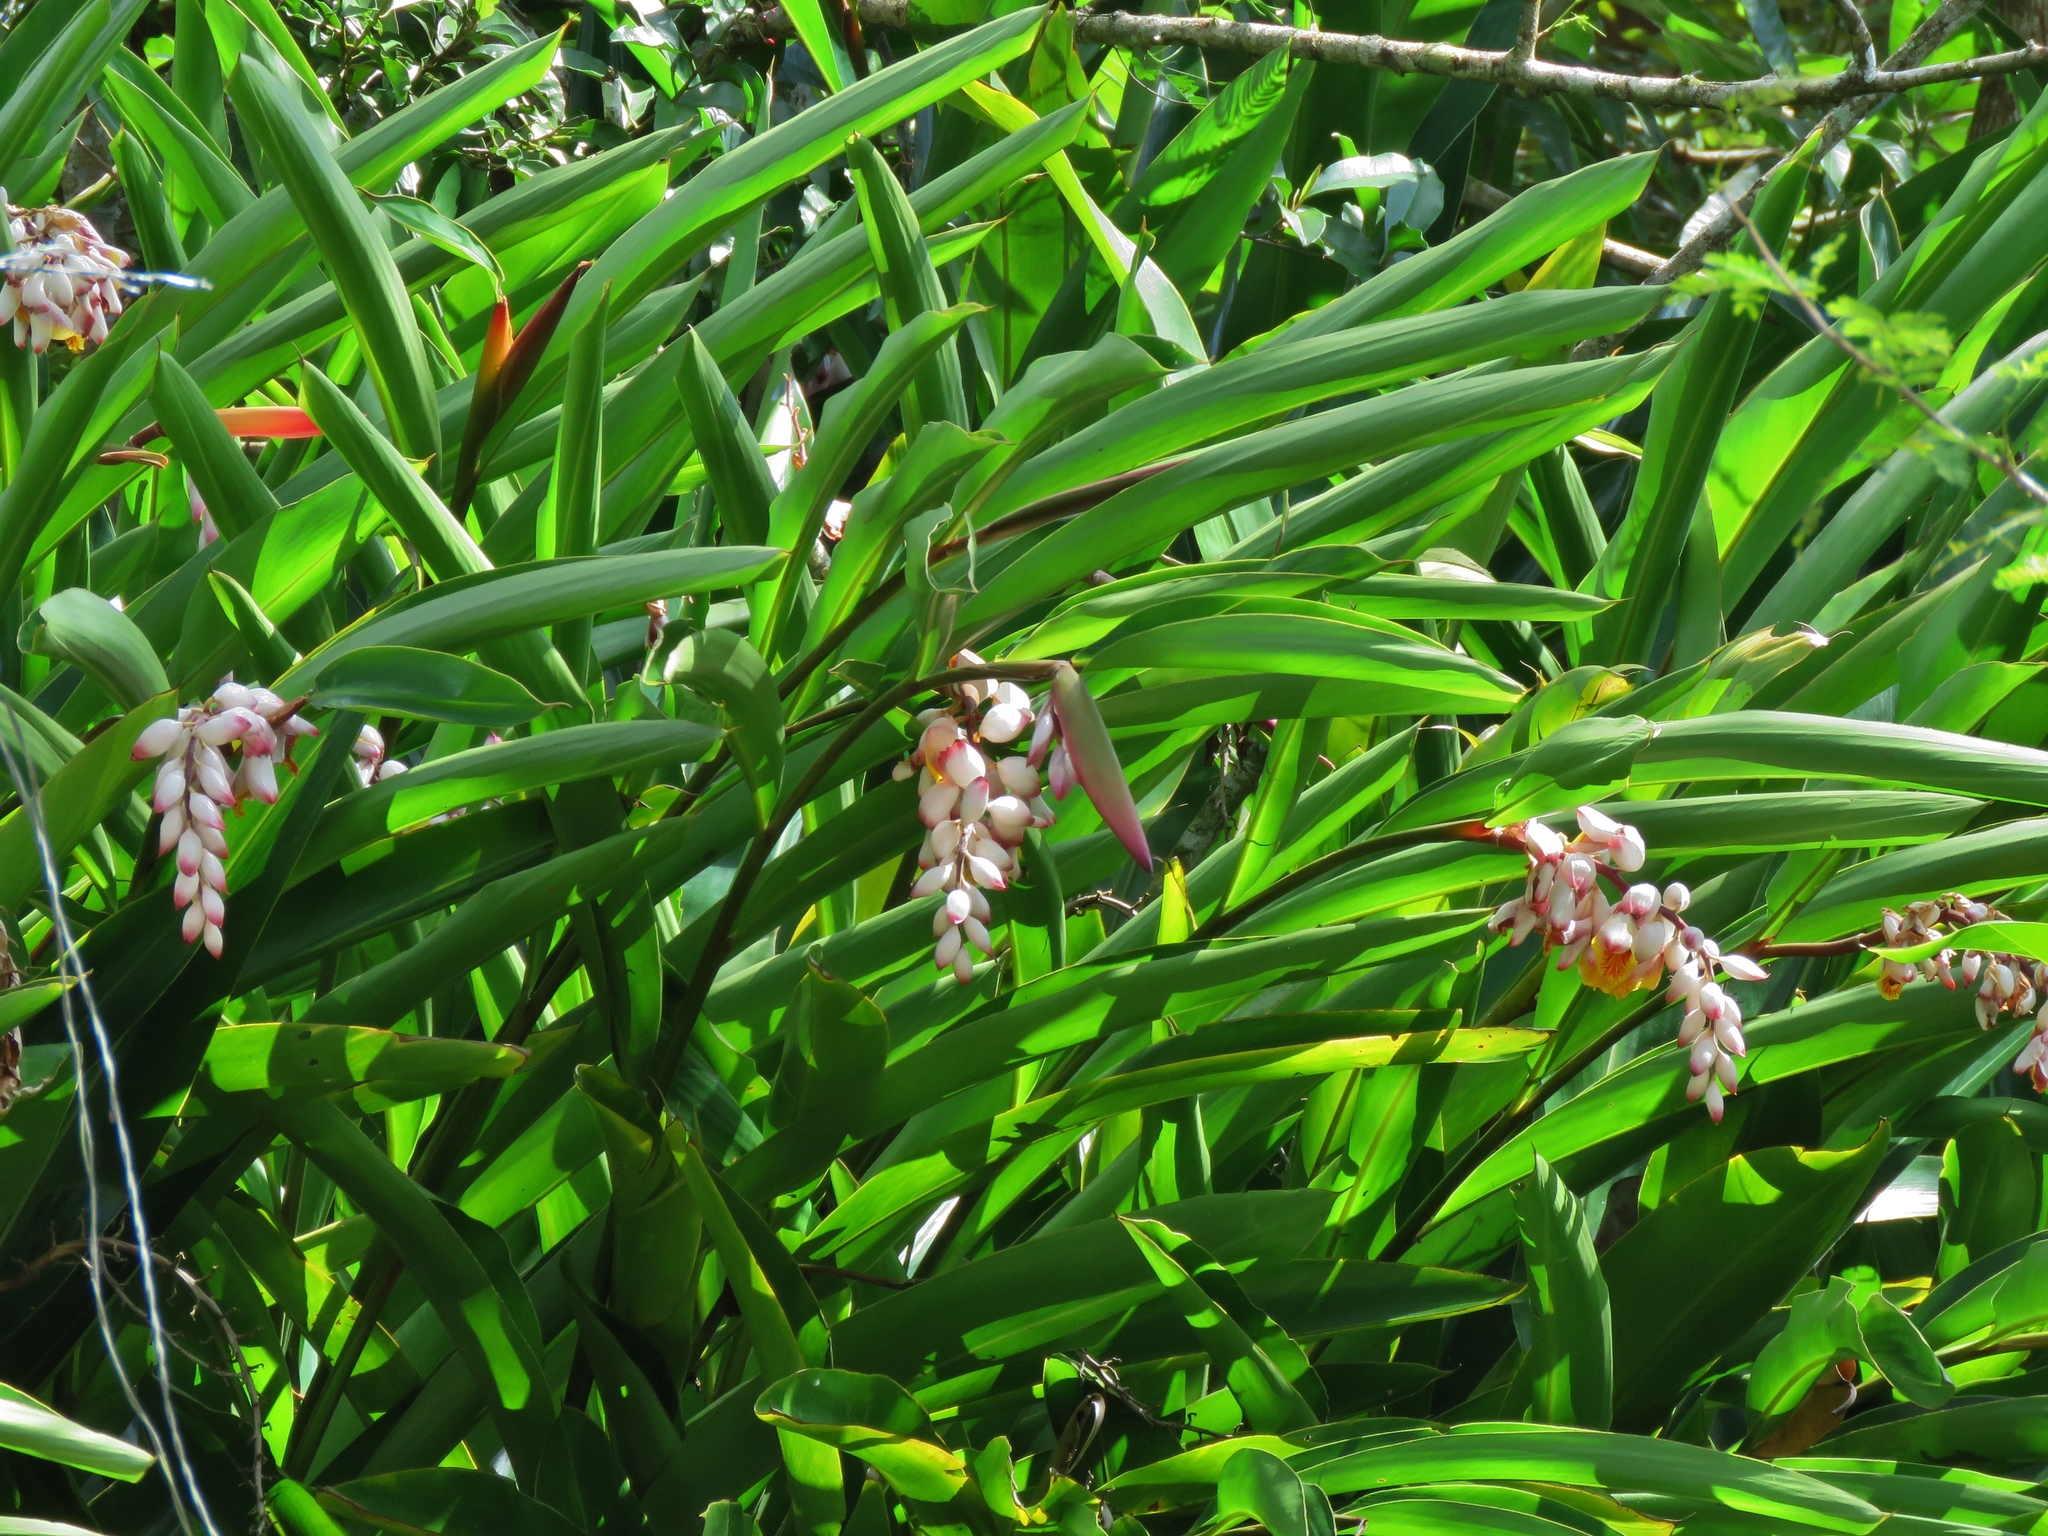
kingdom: Plantae
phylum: Tracheophyta
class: Liliopsida
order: Zingiberales
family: Zingiberaceae
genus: Alpinia
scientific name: Alpinia zerumbet
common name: Shellplant
